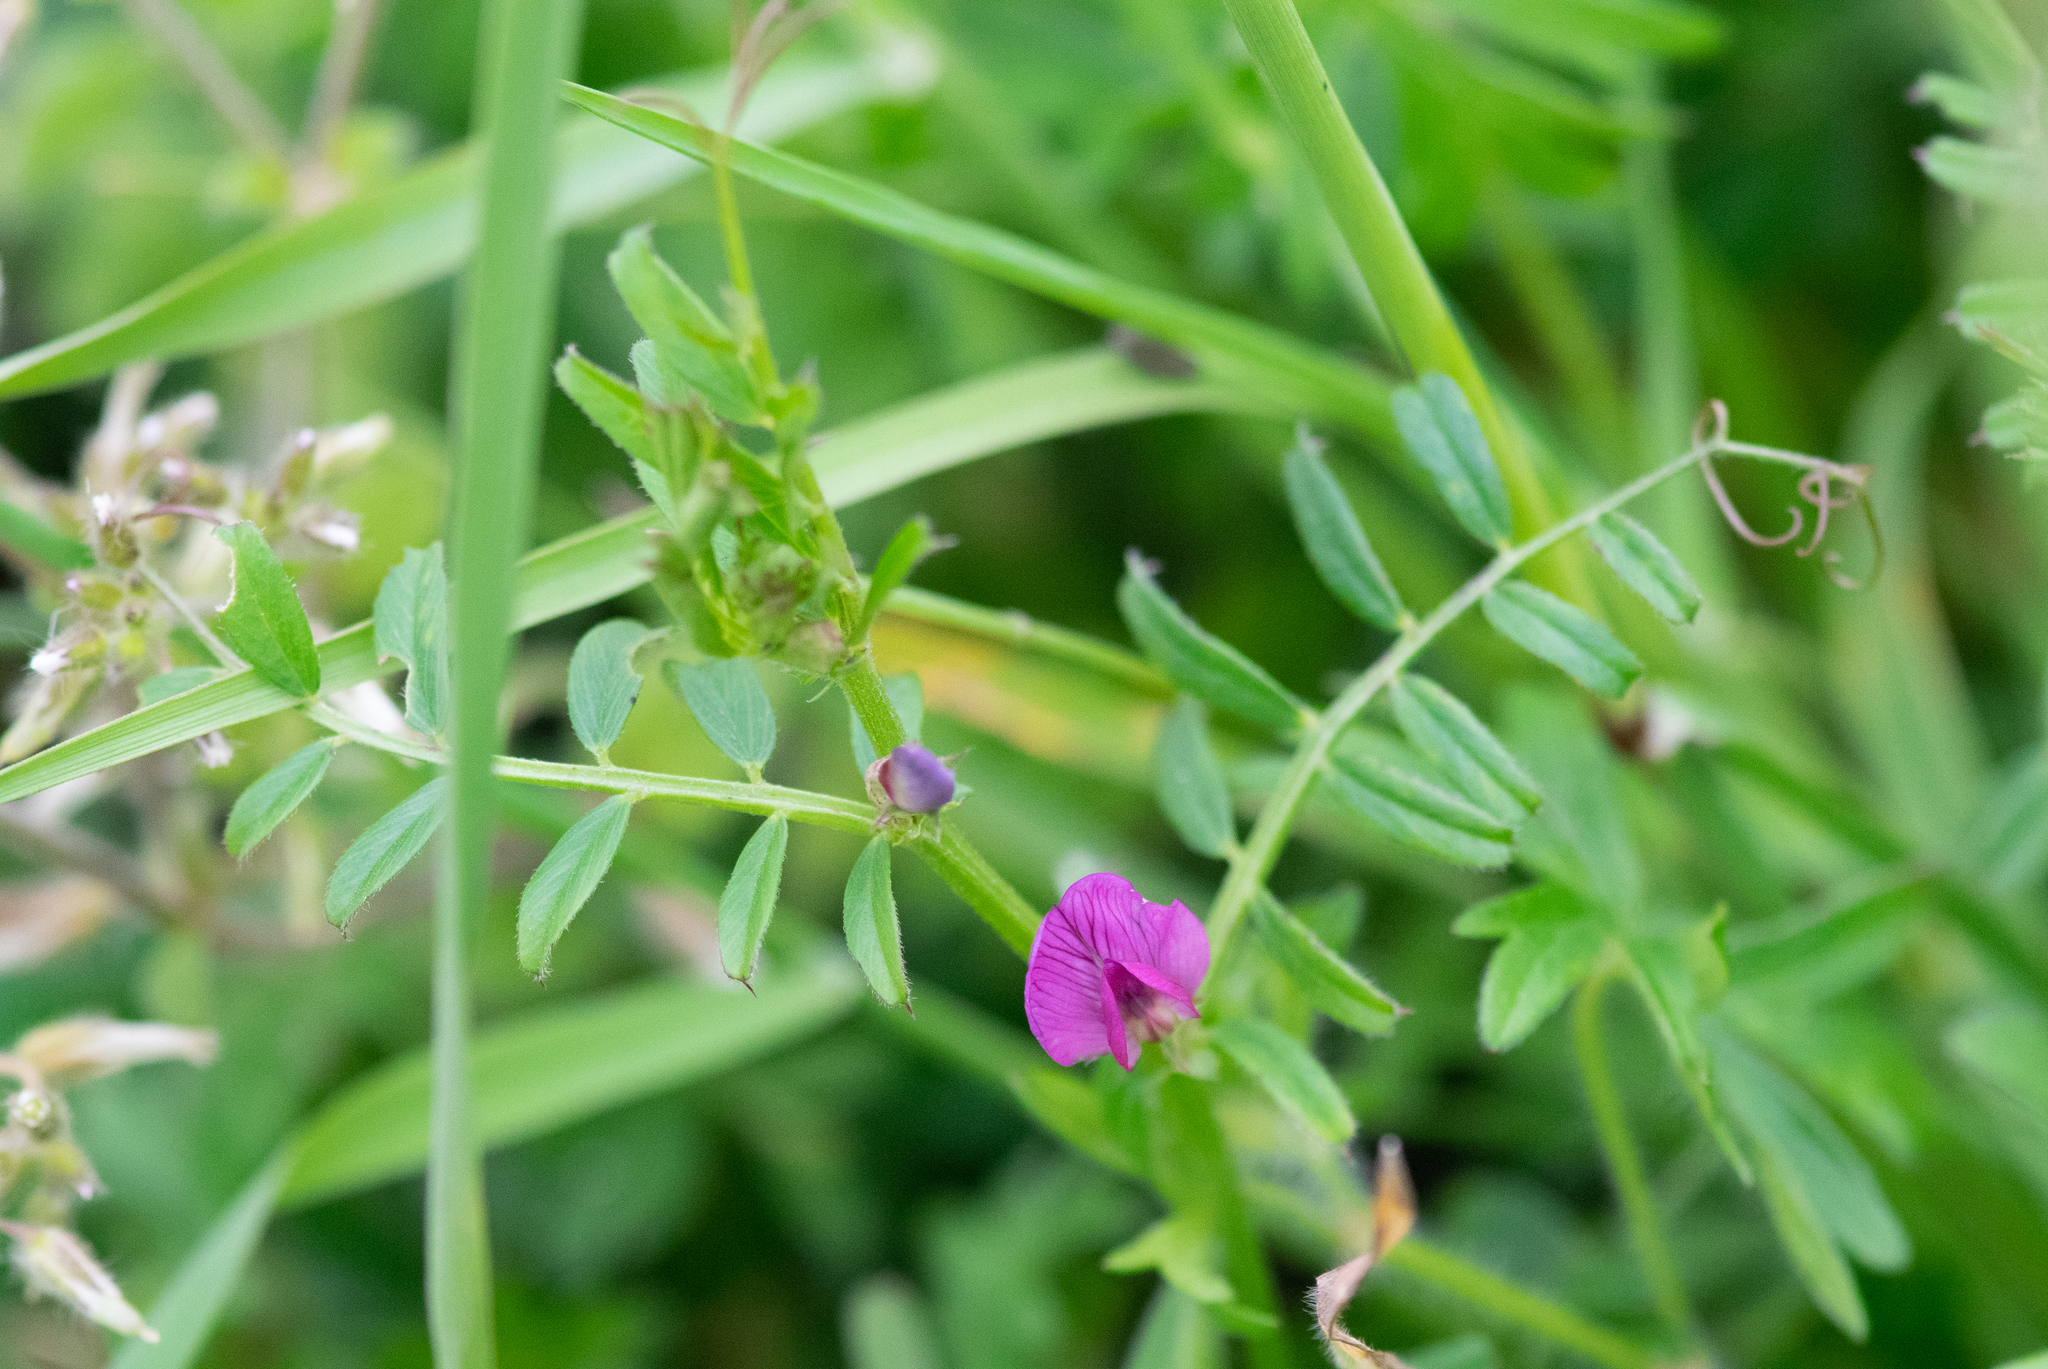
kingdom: Plantae
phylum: Tracheophyta
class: Magnoliopsida
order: Fabales
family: Fabaceae
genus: Vicia
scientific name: Vicia sativa
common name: Garden vetch
